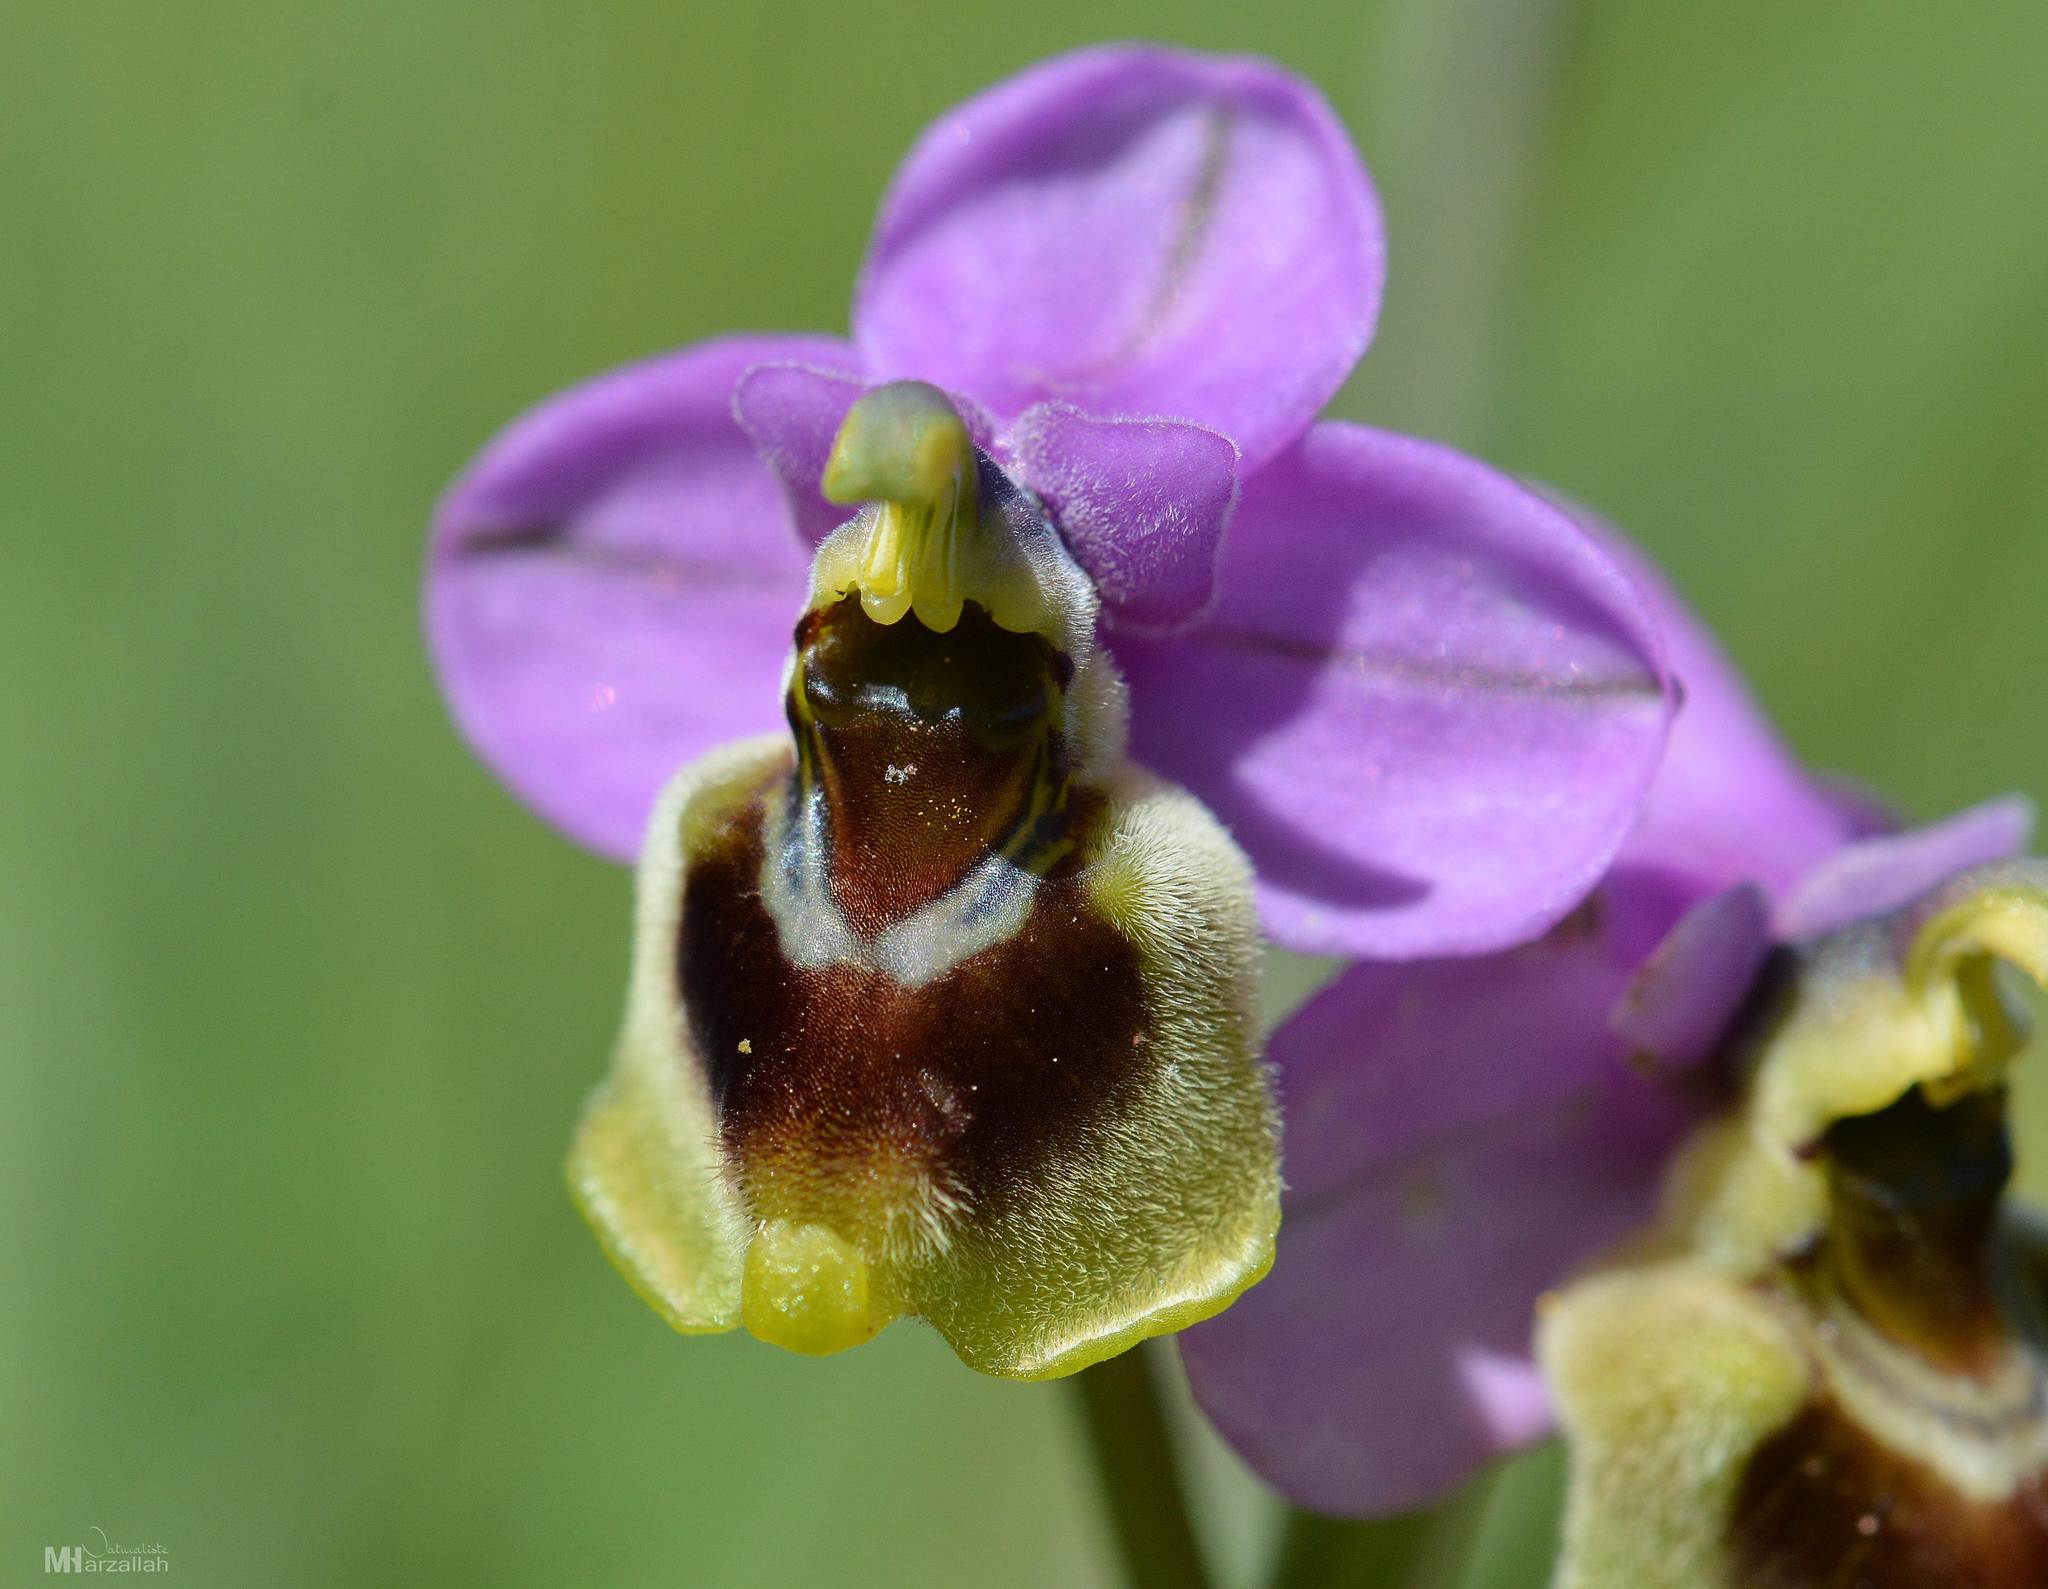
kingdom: Plantae
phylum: Tracheophyta
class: Liliopsida
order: Asparagales
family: Orchidaceae
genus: Ophrys
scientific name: Ophrys tenthredinifera
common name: Sawfly orchid
